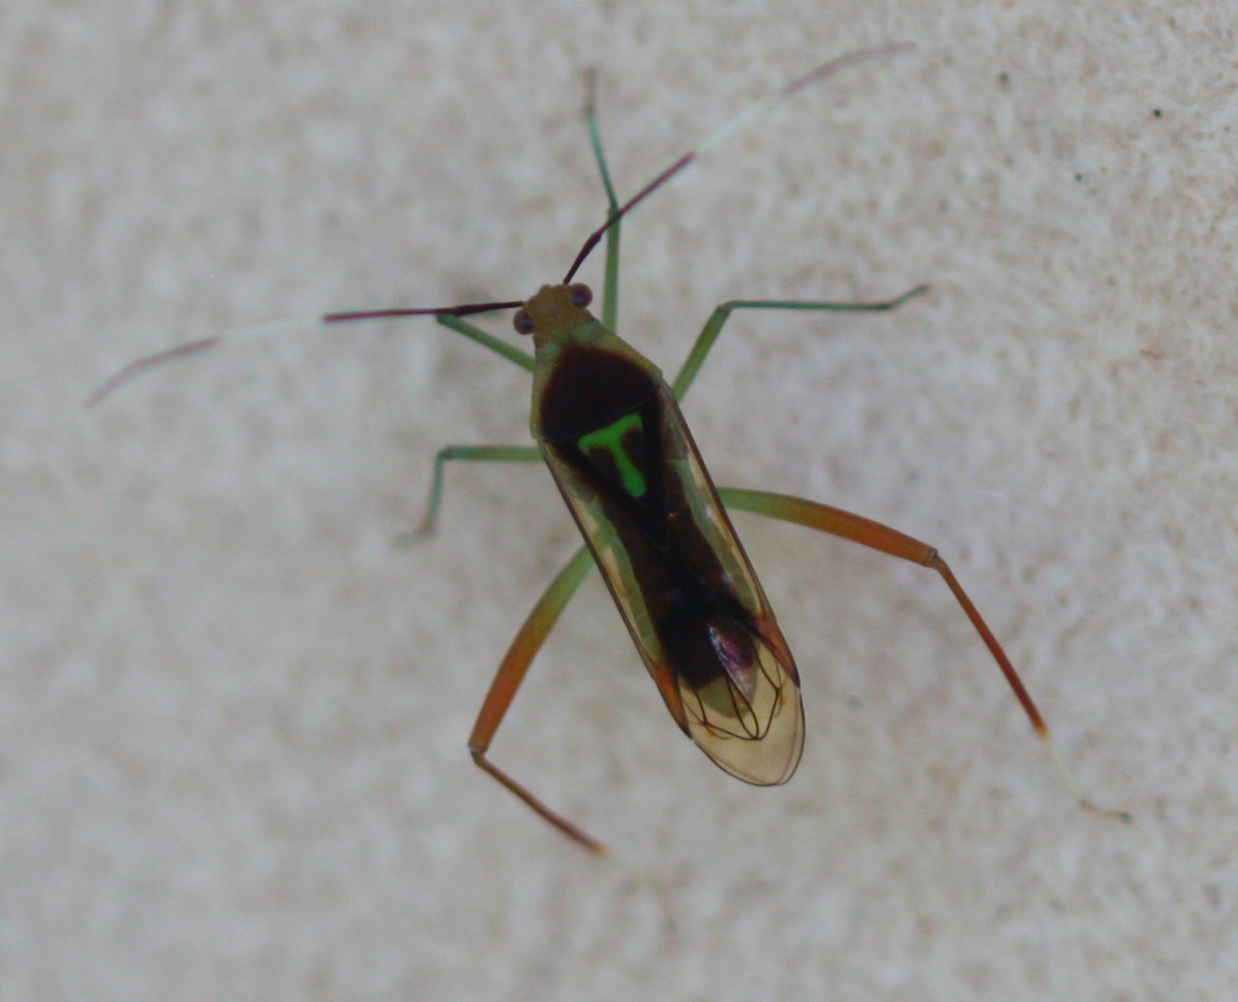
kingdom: Animalia
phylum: Arthropoda
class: Insecta
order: Hemiptera
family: Miridae
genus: Macrolonius
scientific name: Macrolonius sobrinus
